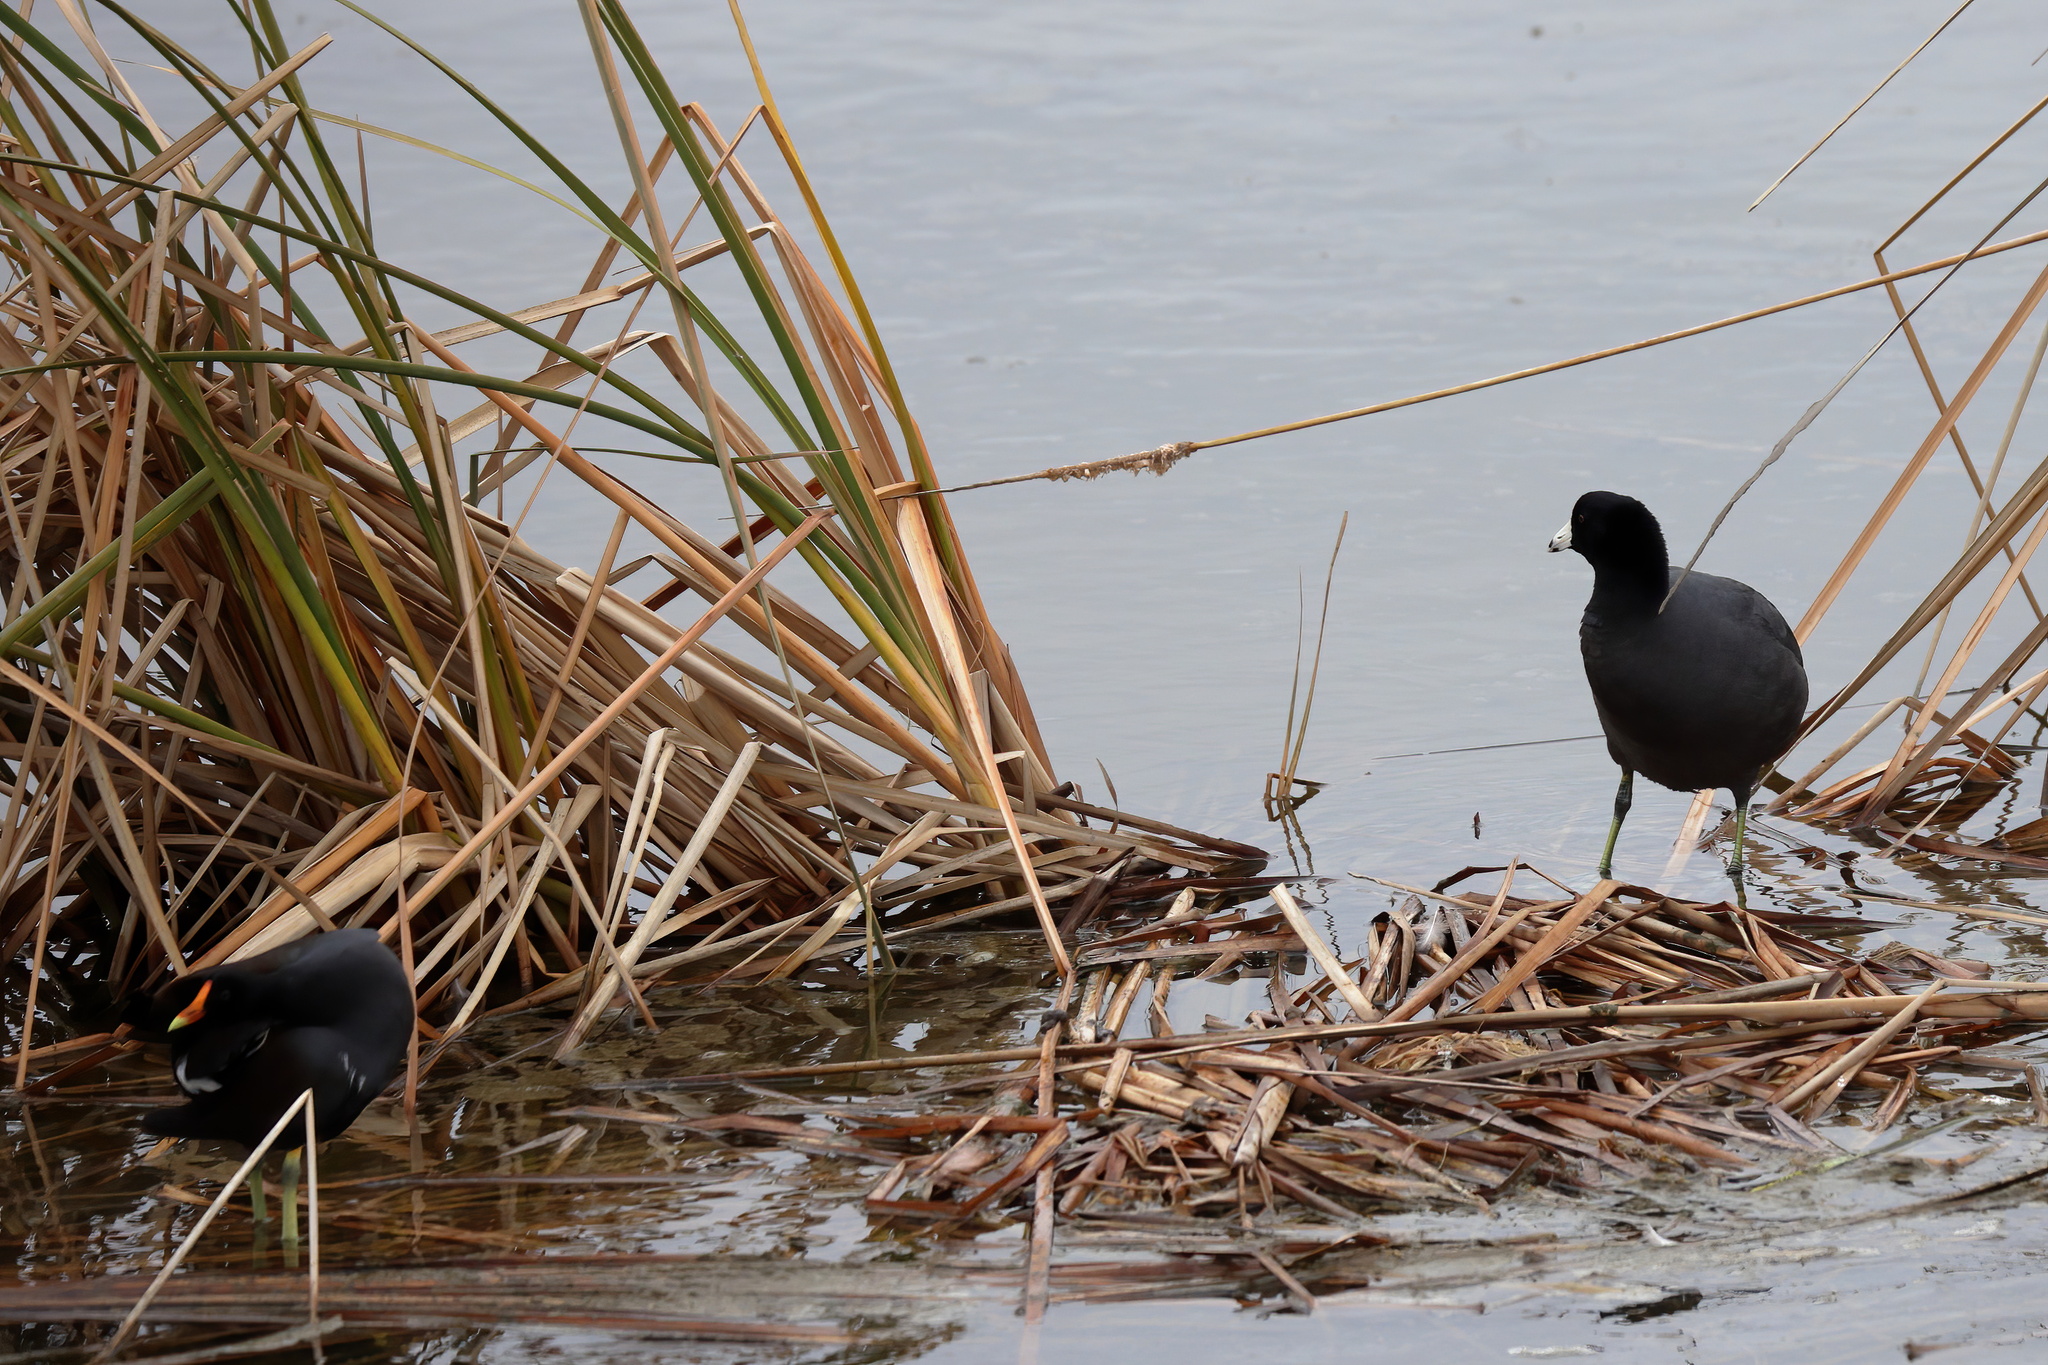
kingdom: Animalia
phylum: Chordata
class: Aves
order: Gruiformes
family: Rallidae
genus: Fulica
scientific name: Fulica americana
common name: American coot
